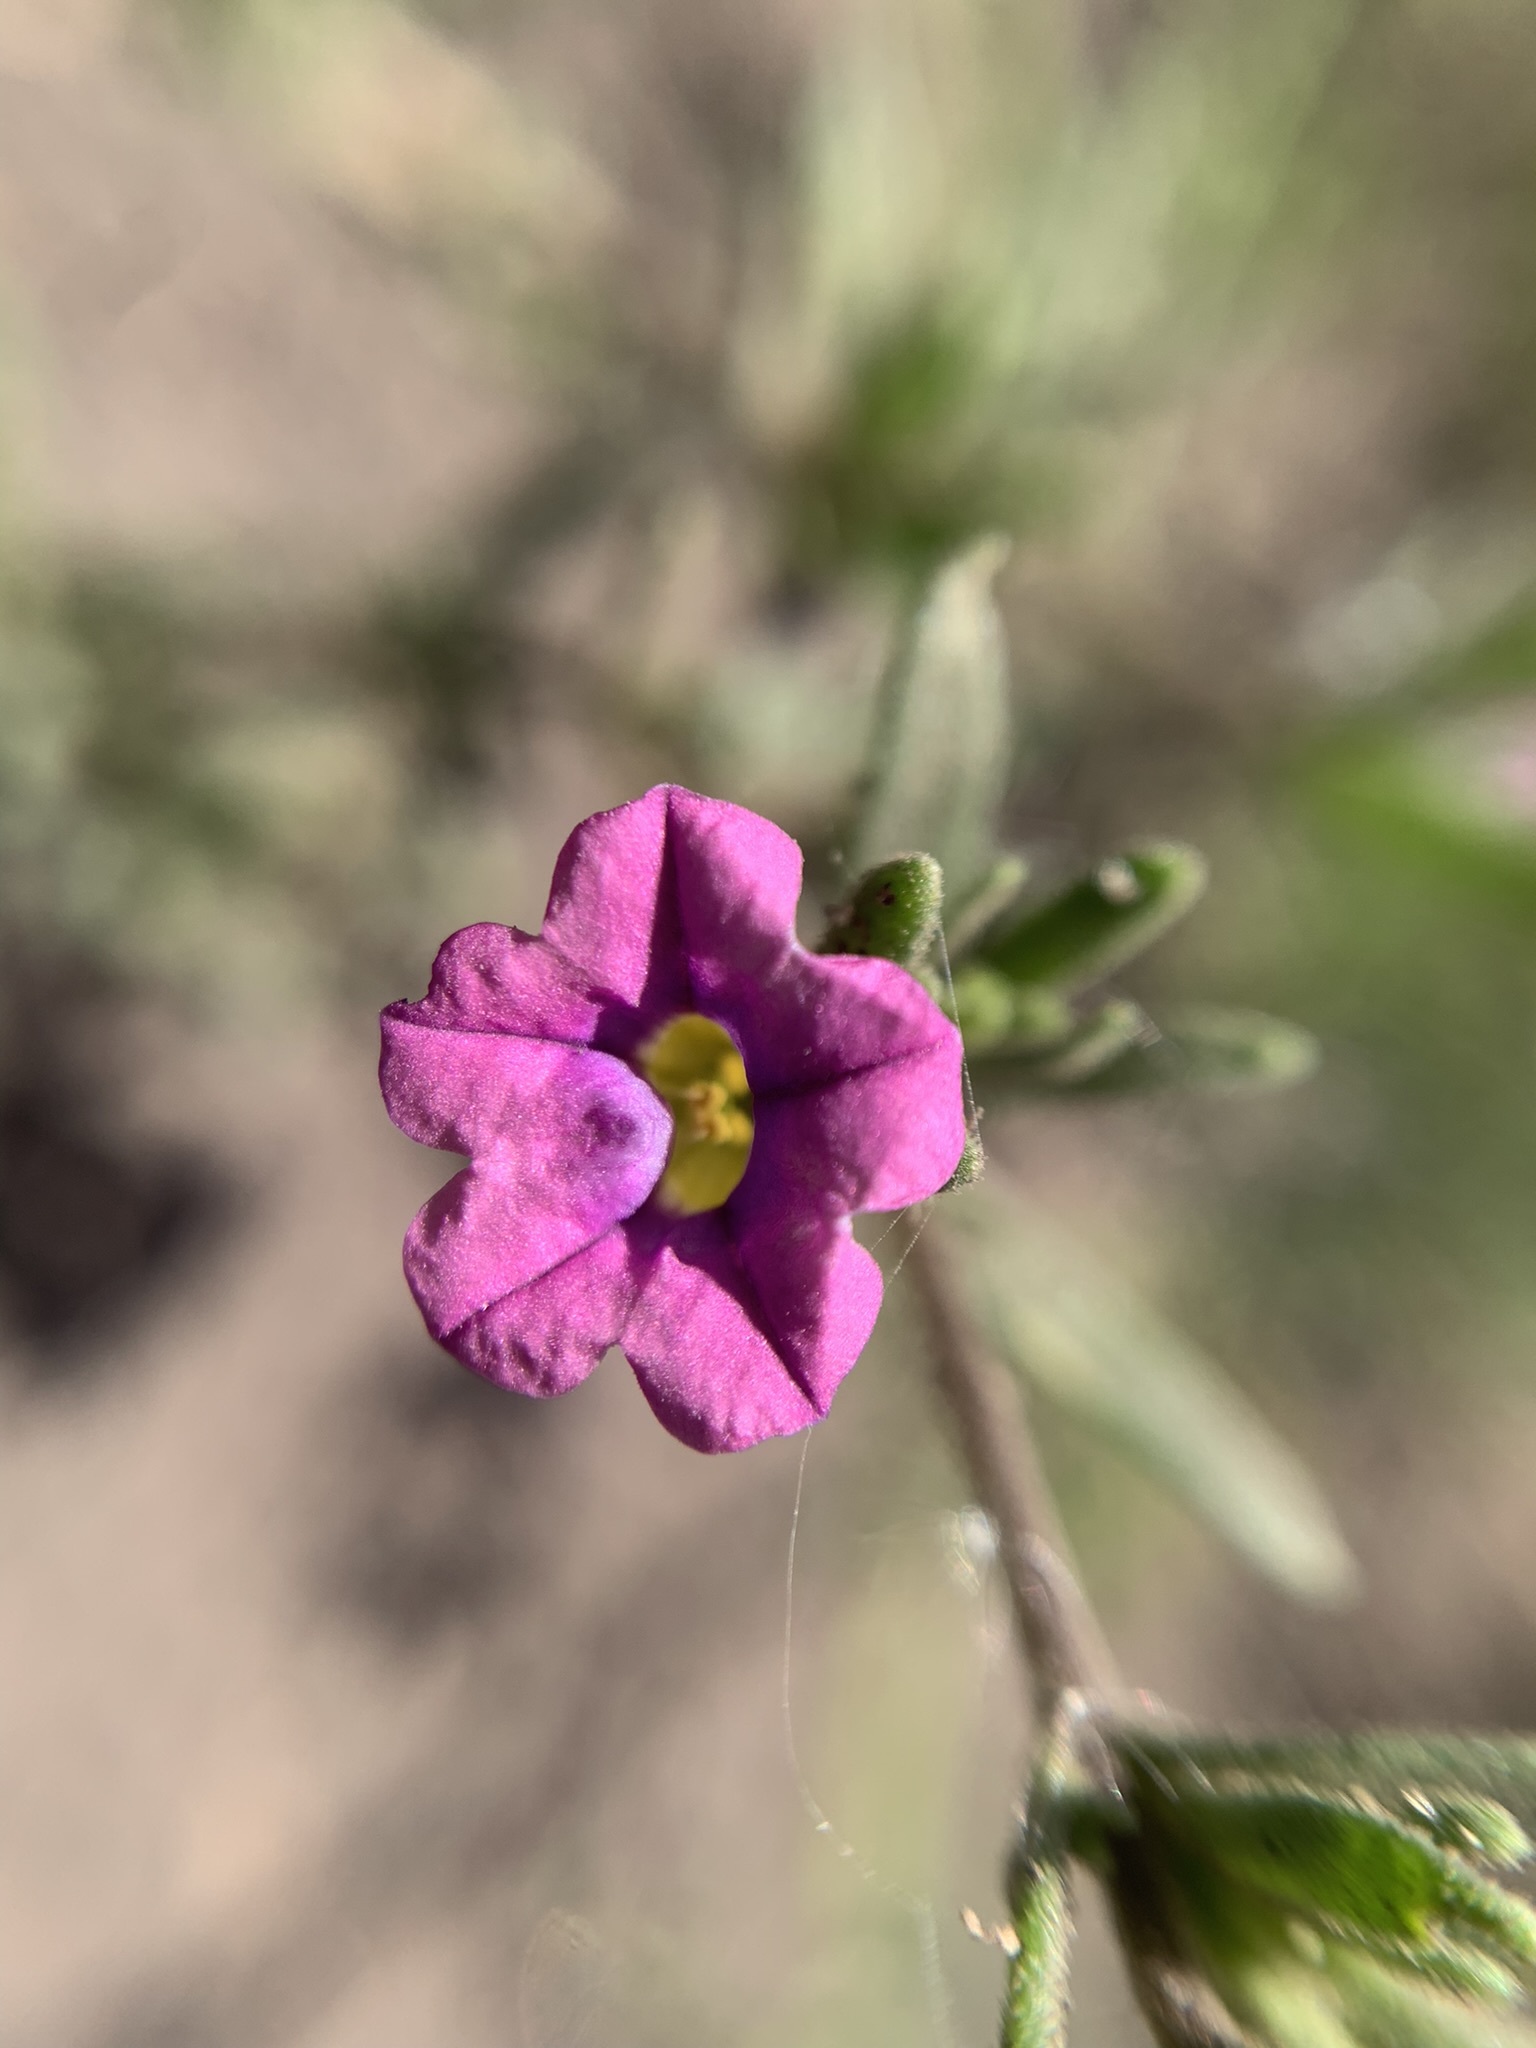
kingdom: Plantae
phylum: Tracheophyta
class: Magnoliopsida
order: Solanales
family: Solanaceae
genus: Calibrachoa
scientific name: Calibrachoa parviflora
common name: Seaside petunia
